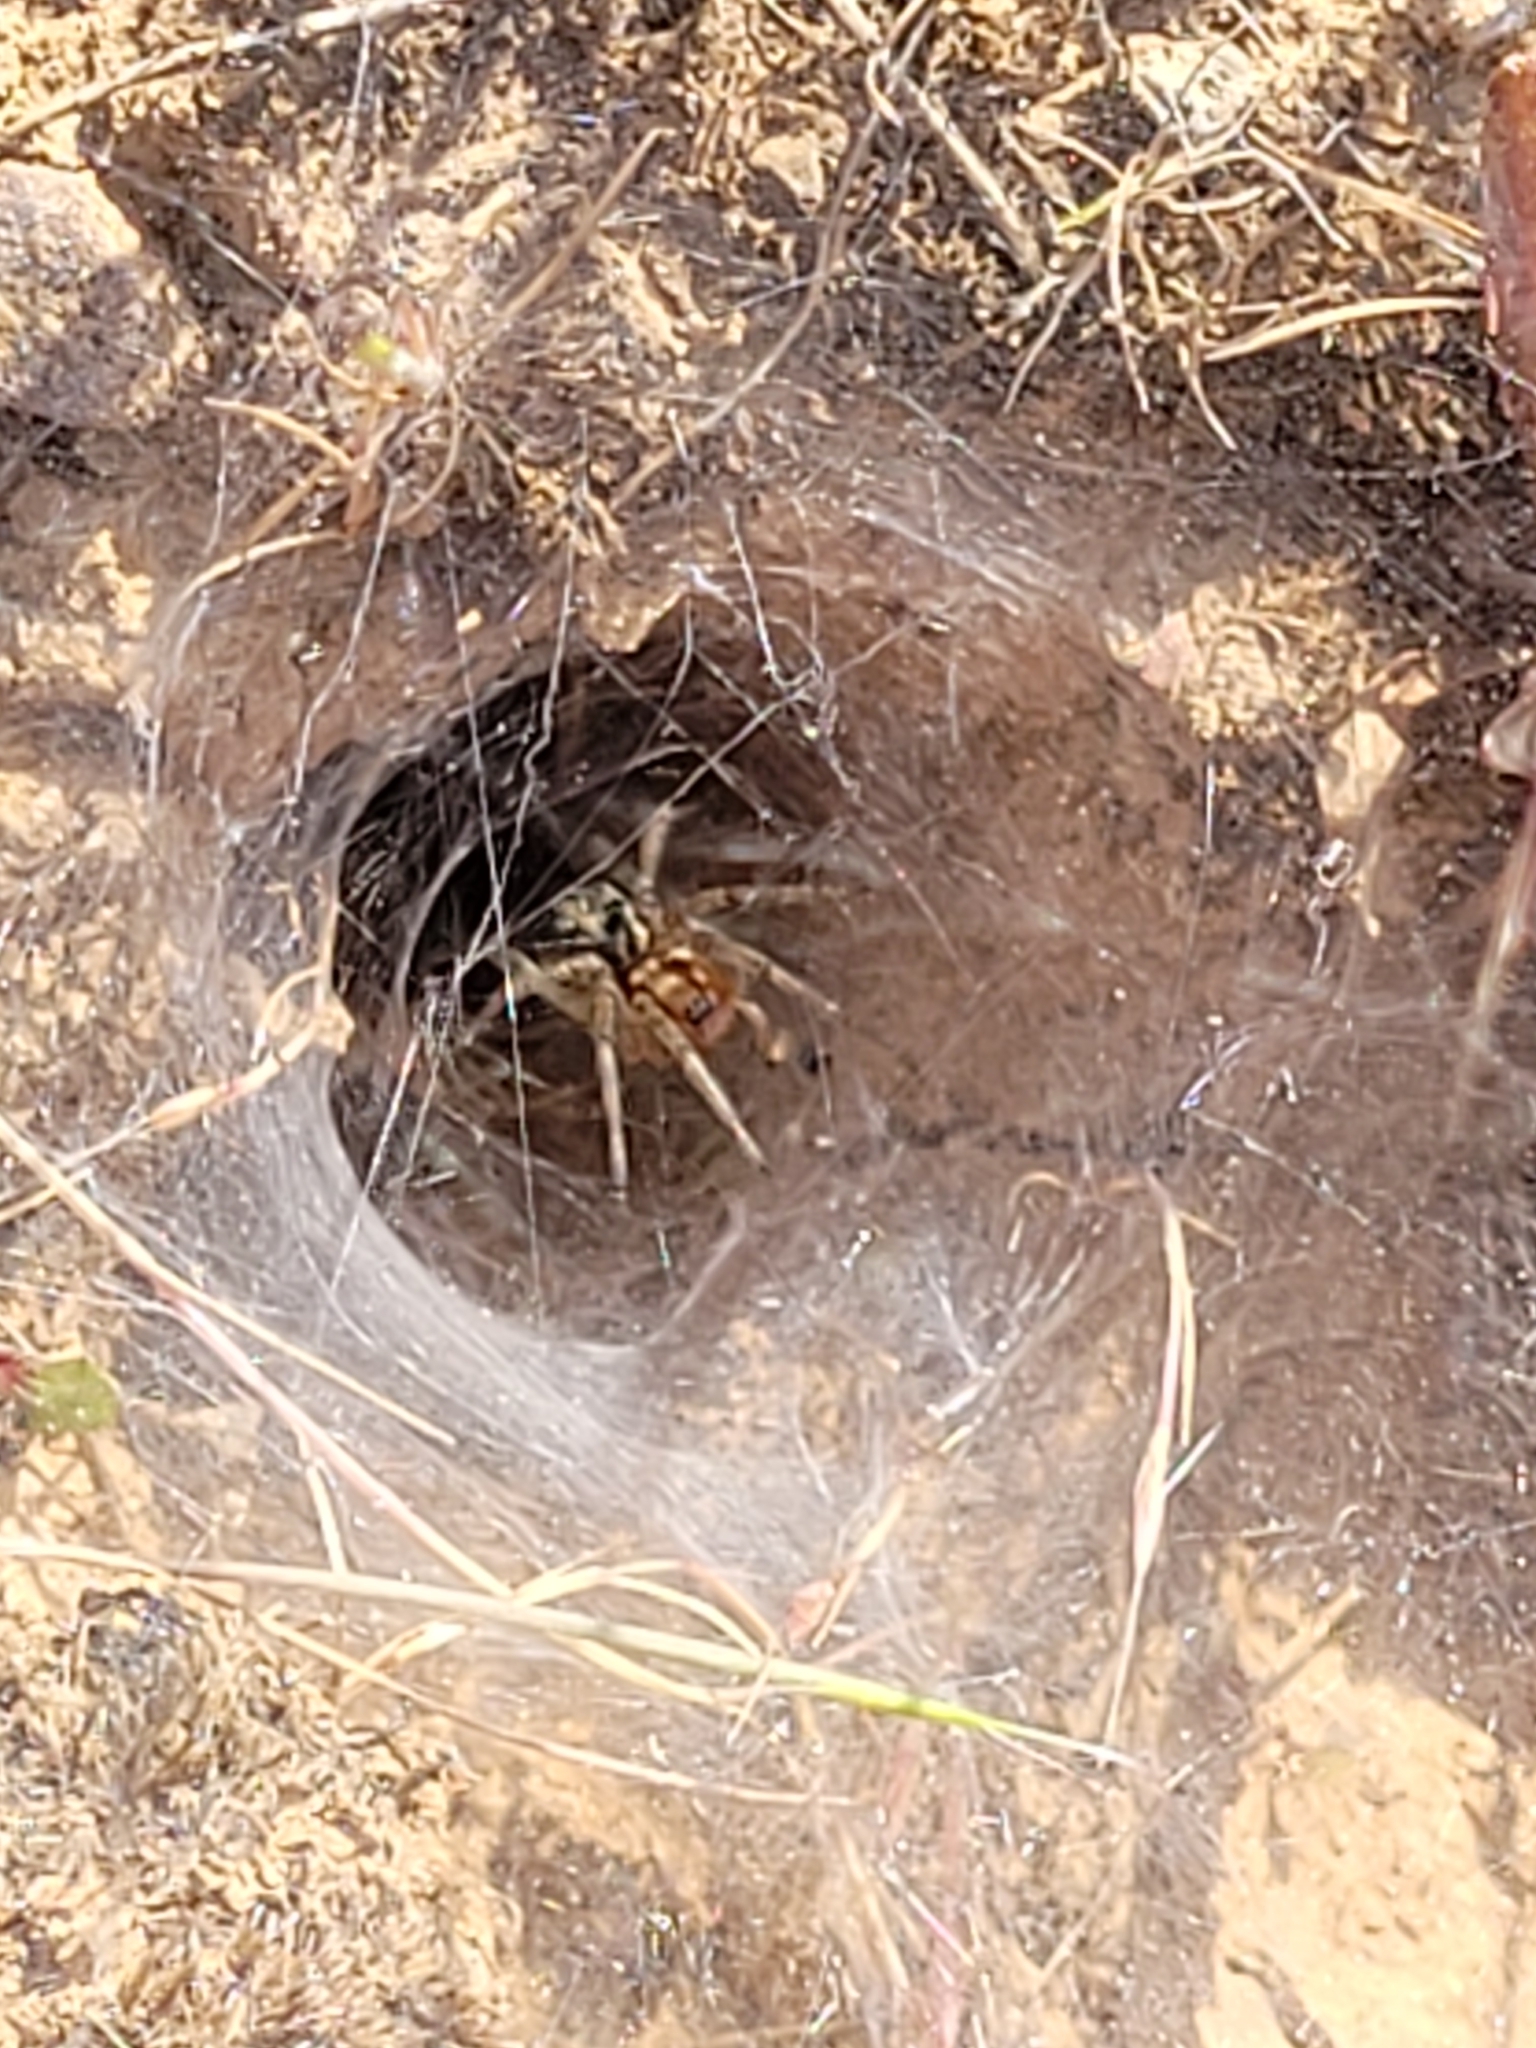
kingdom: Animalia
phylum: Arthropoda
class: Arachnida
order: Araneae
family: Agelenidae
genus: Agelena
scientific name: Agelena labyrinthica
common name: Labyrinth spider
